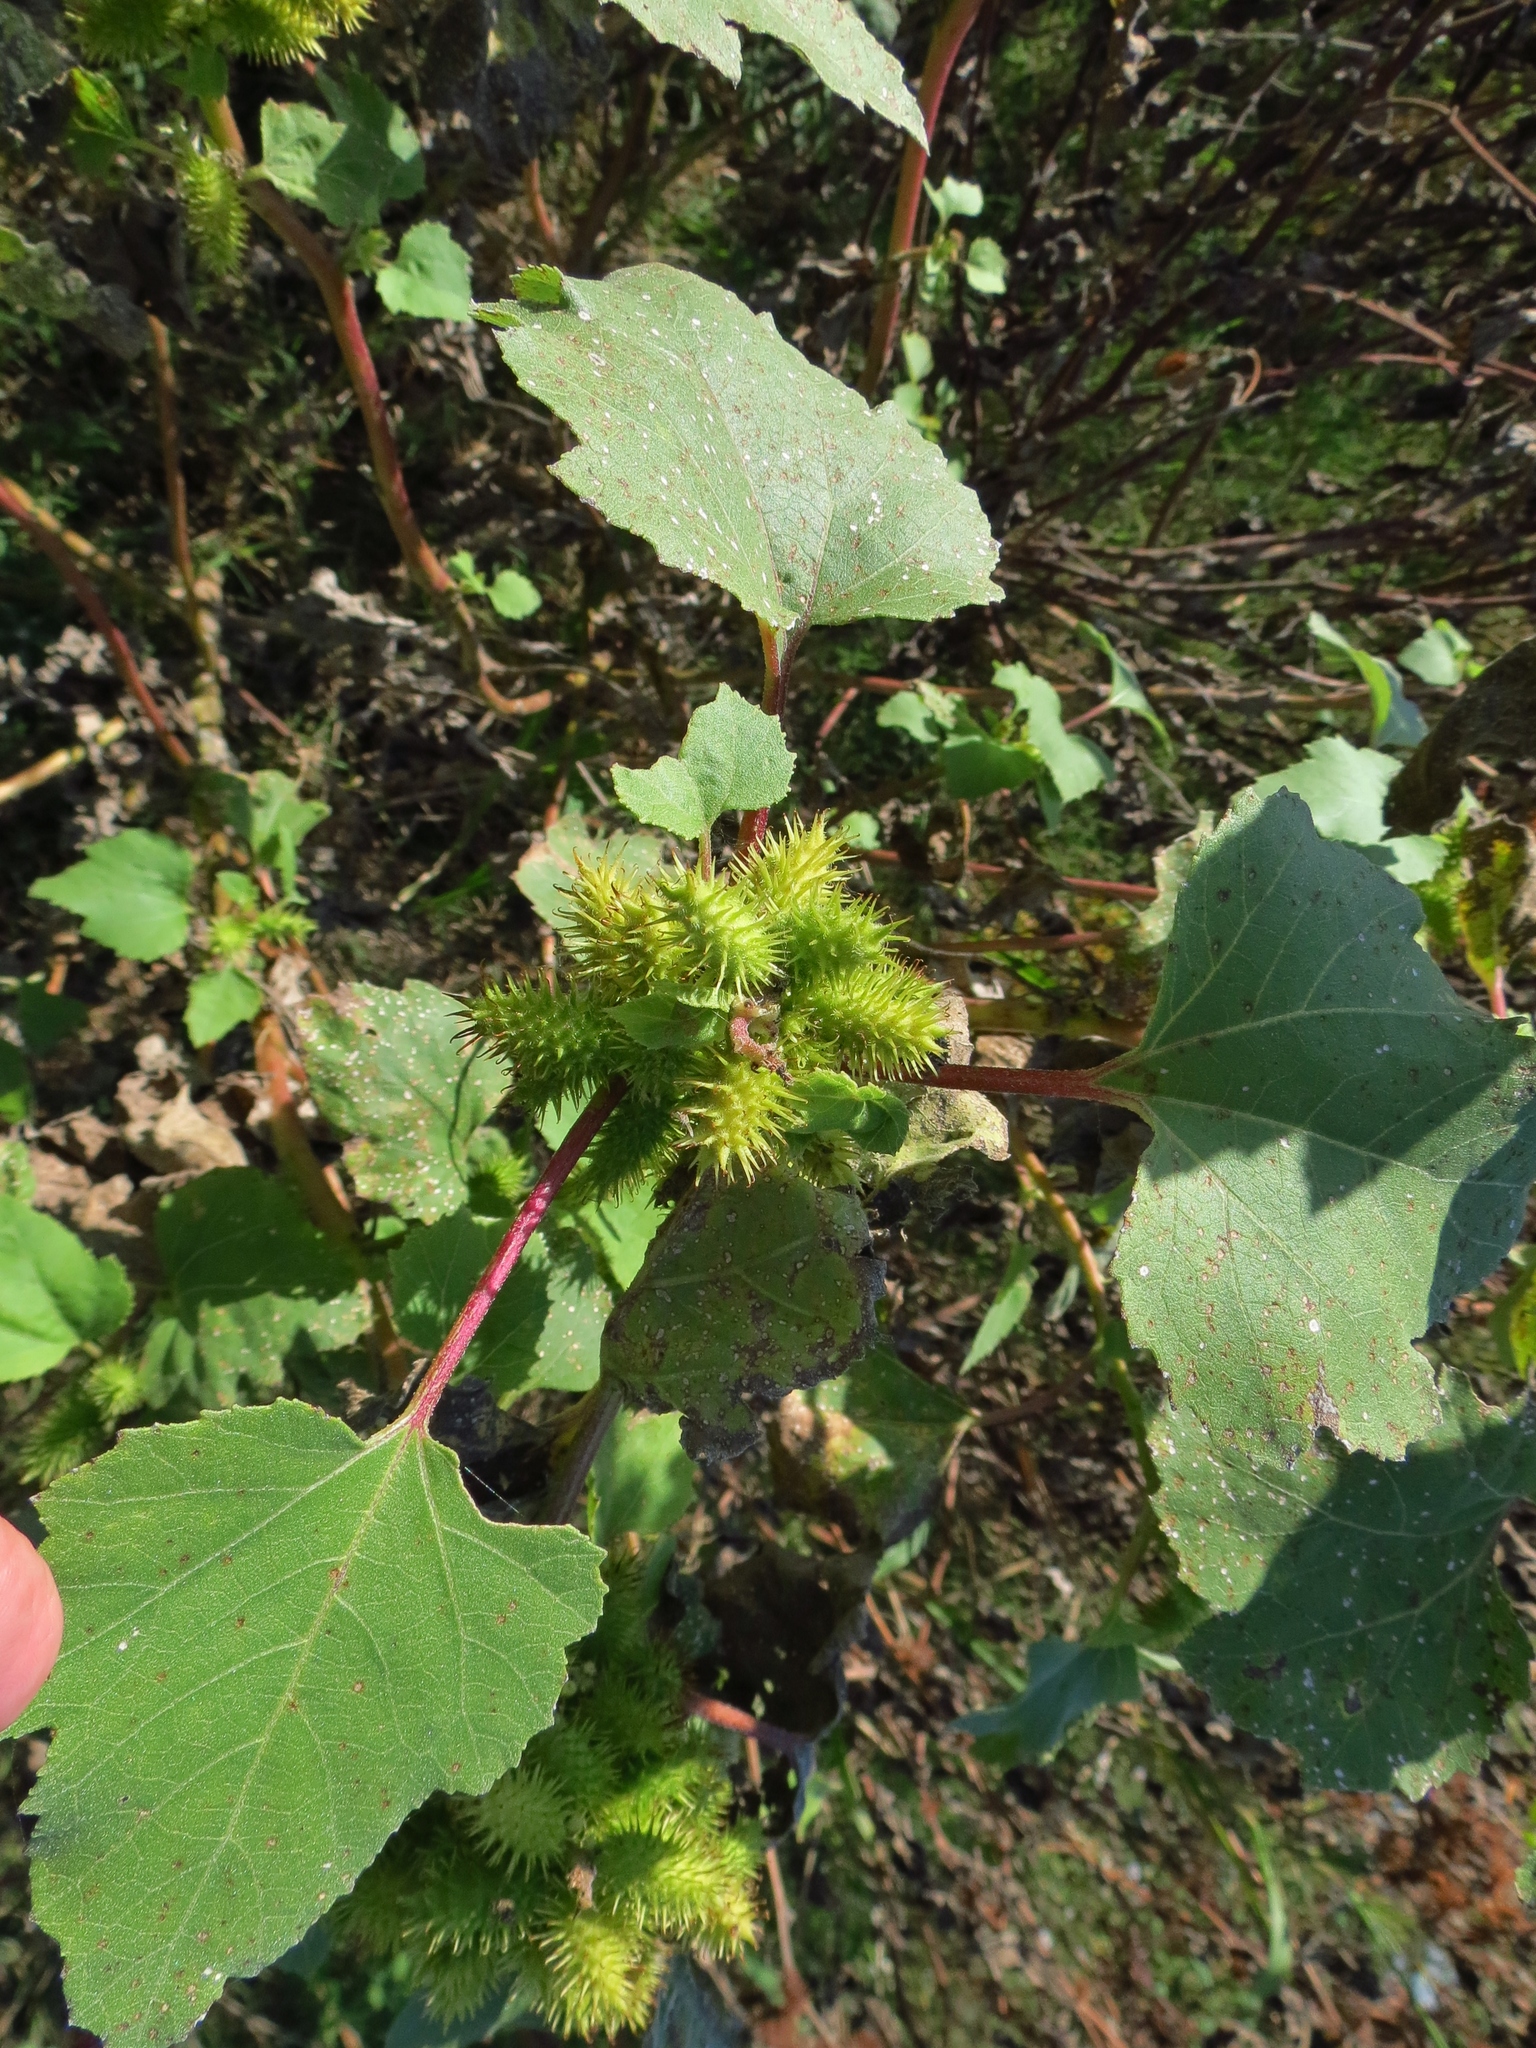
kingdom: Plantae
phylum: Tracheophyta
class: Magnoliopsida
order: Asterales
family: Asteraceae
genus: Xanthium
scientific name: Xanthium strumarium
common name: Rough cocklebur
